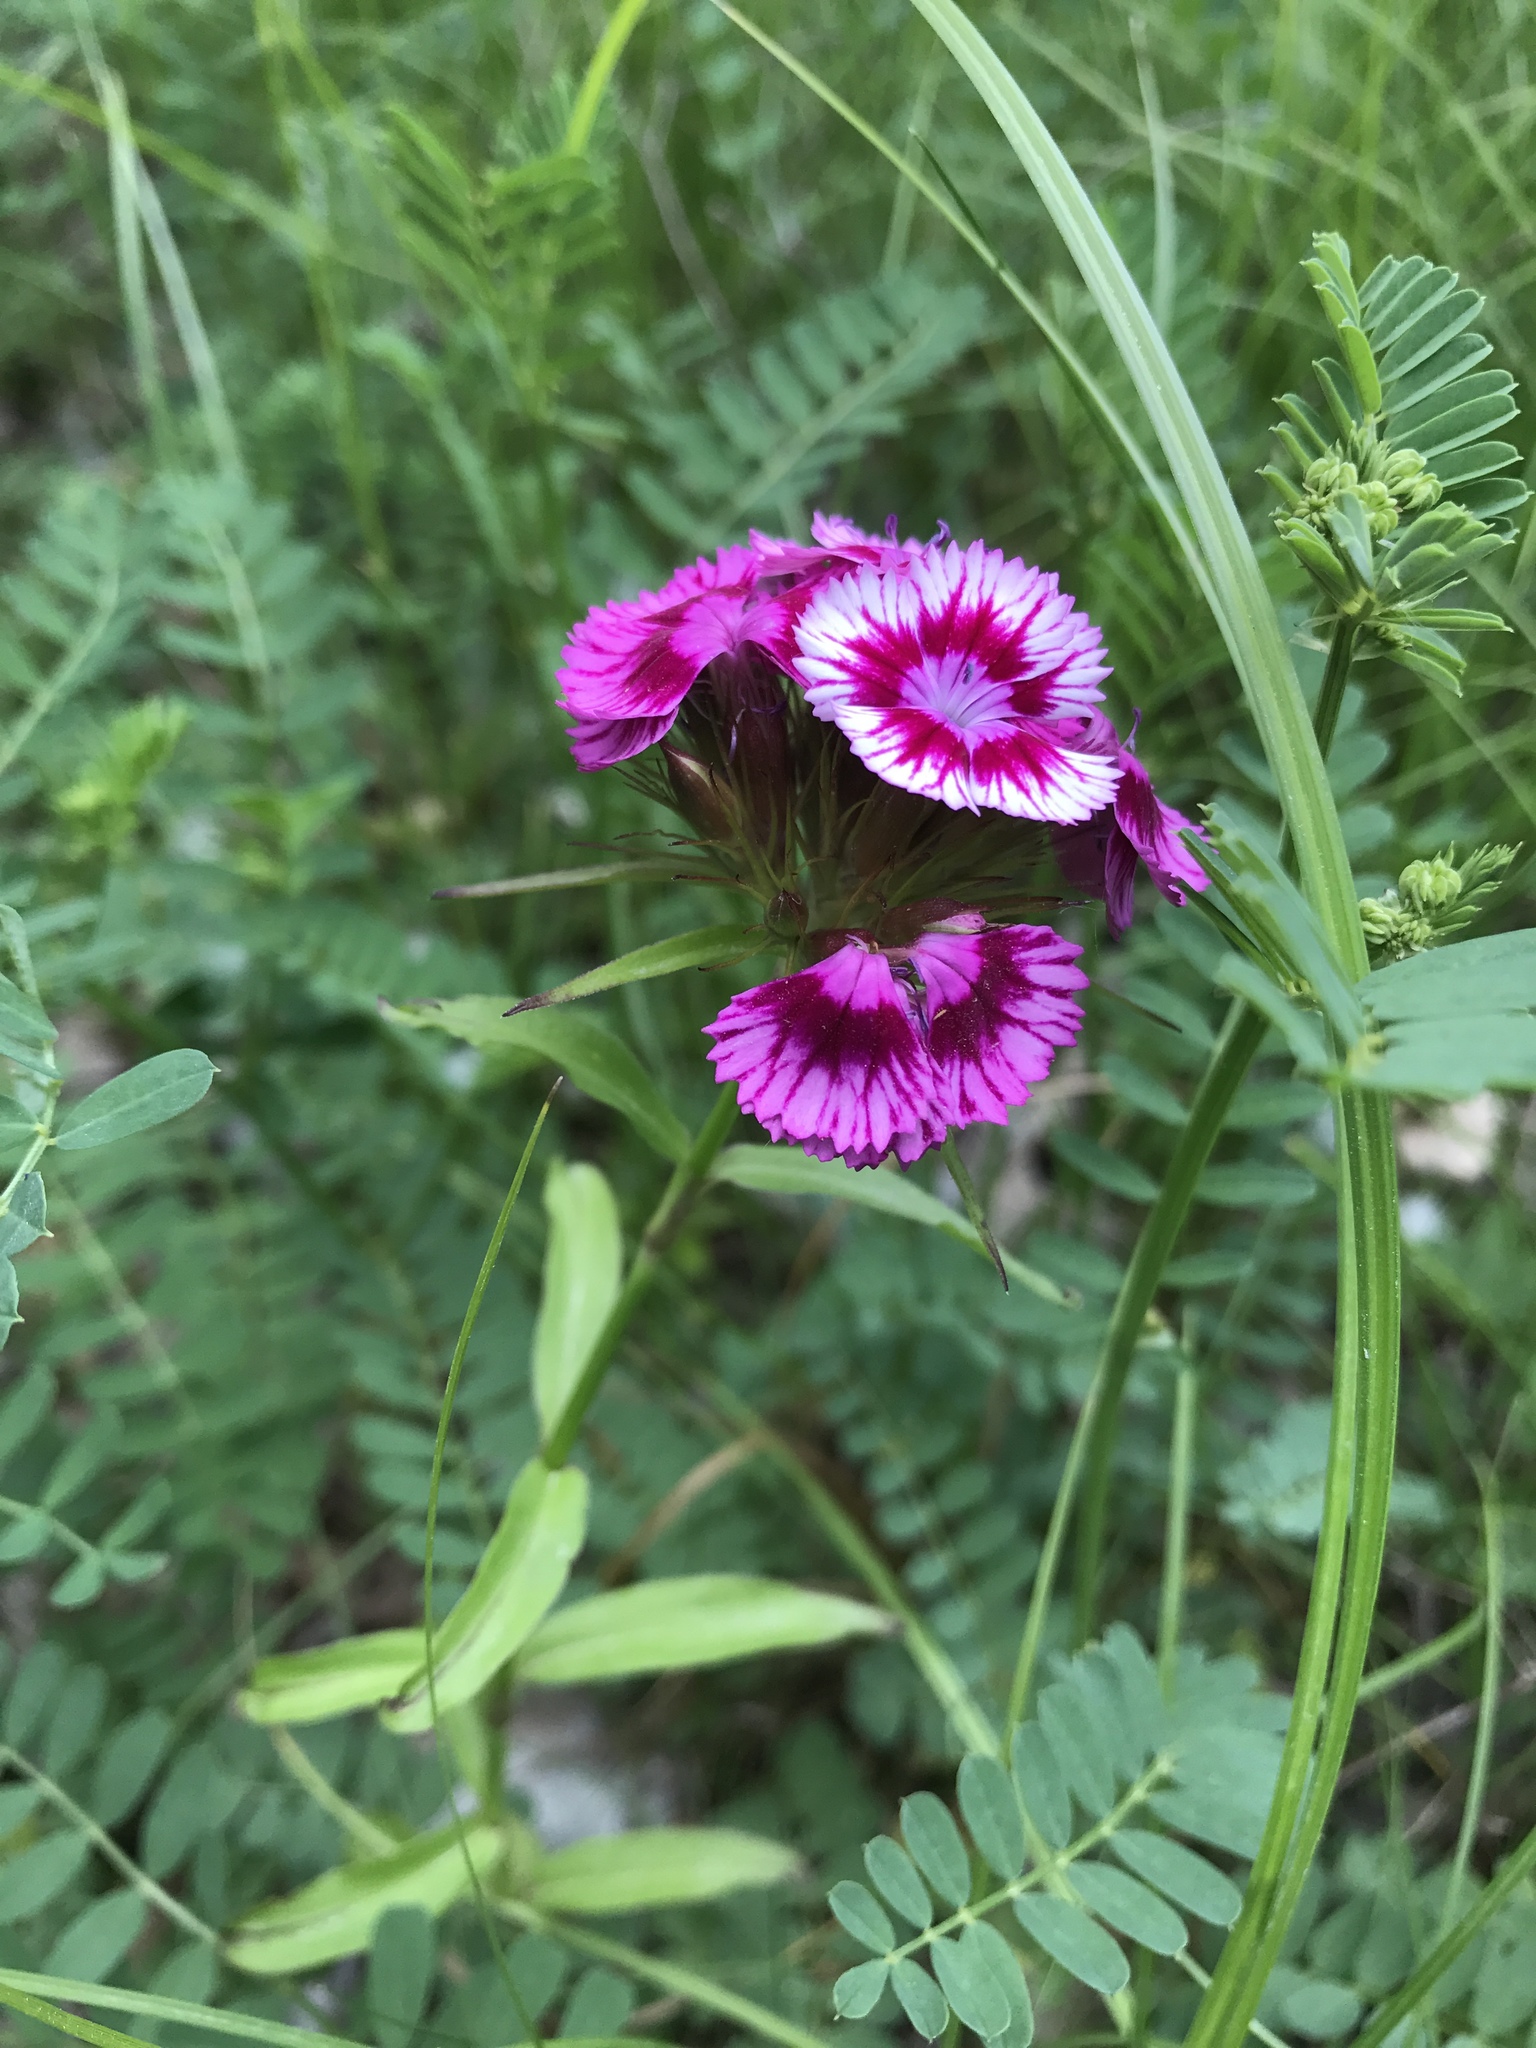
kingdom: Plantae
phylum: Tracheophyta
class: Magnoliopsida
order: Caryophyllales
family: Caryophyllaceae
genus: Dianthus
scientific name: Dianthus barbatus
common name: Sweet-william
